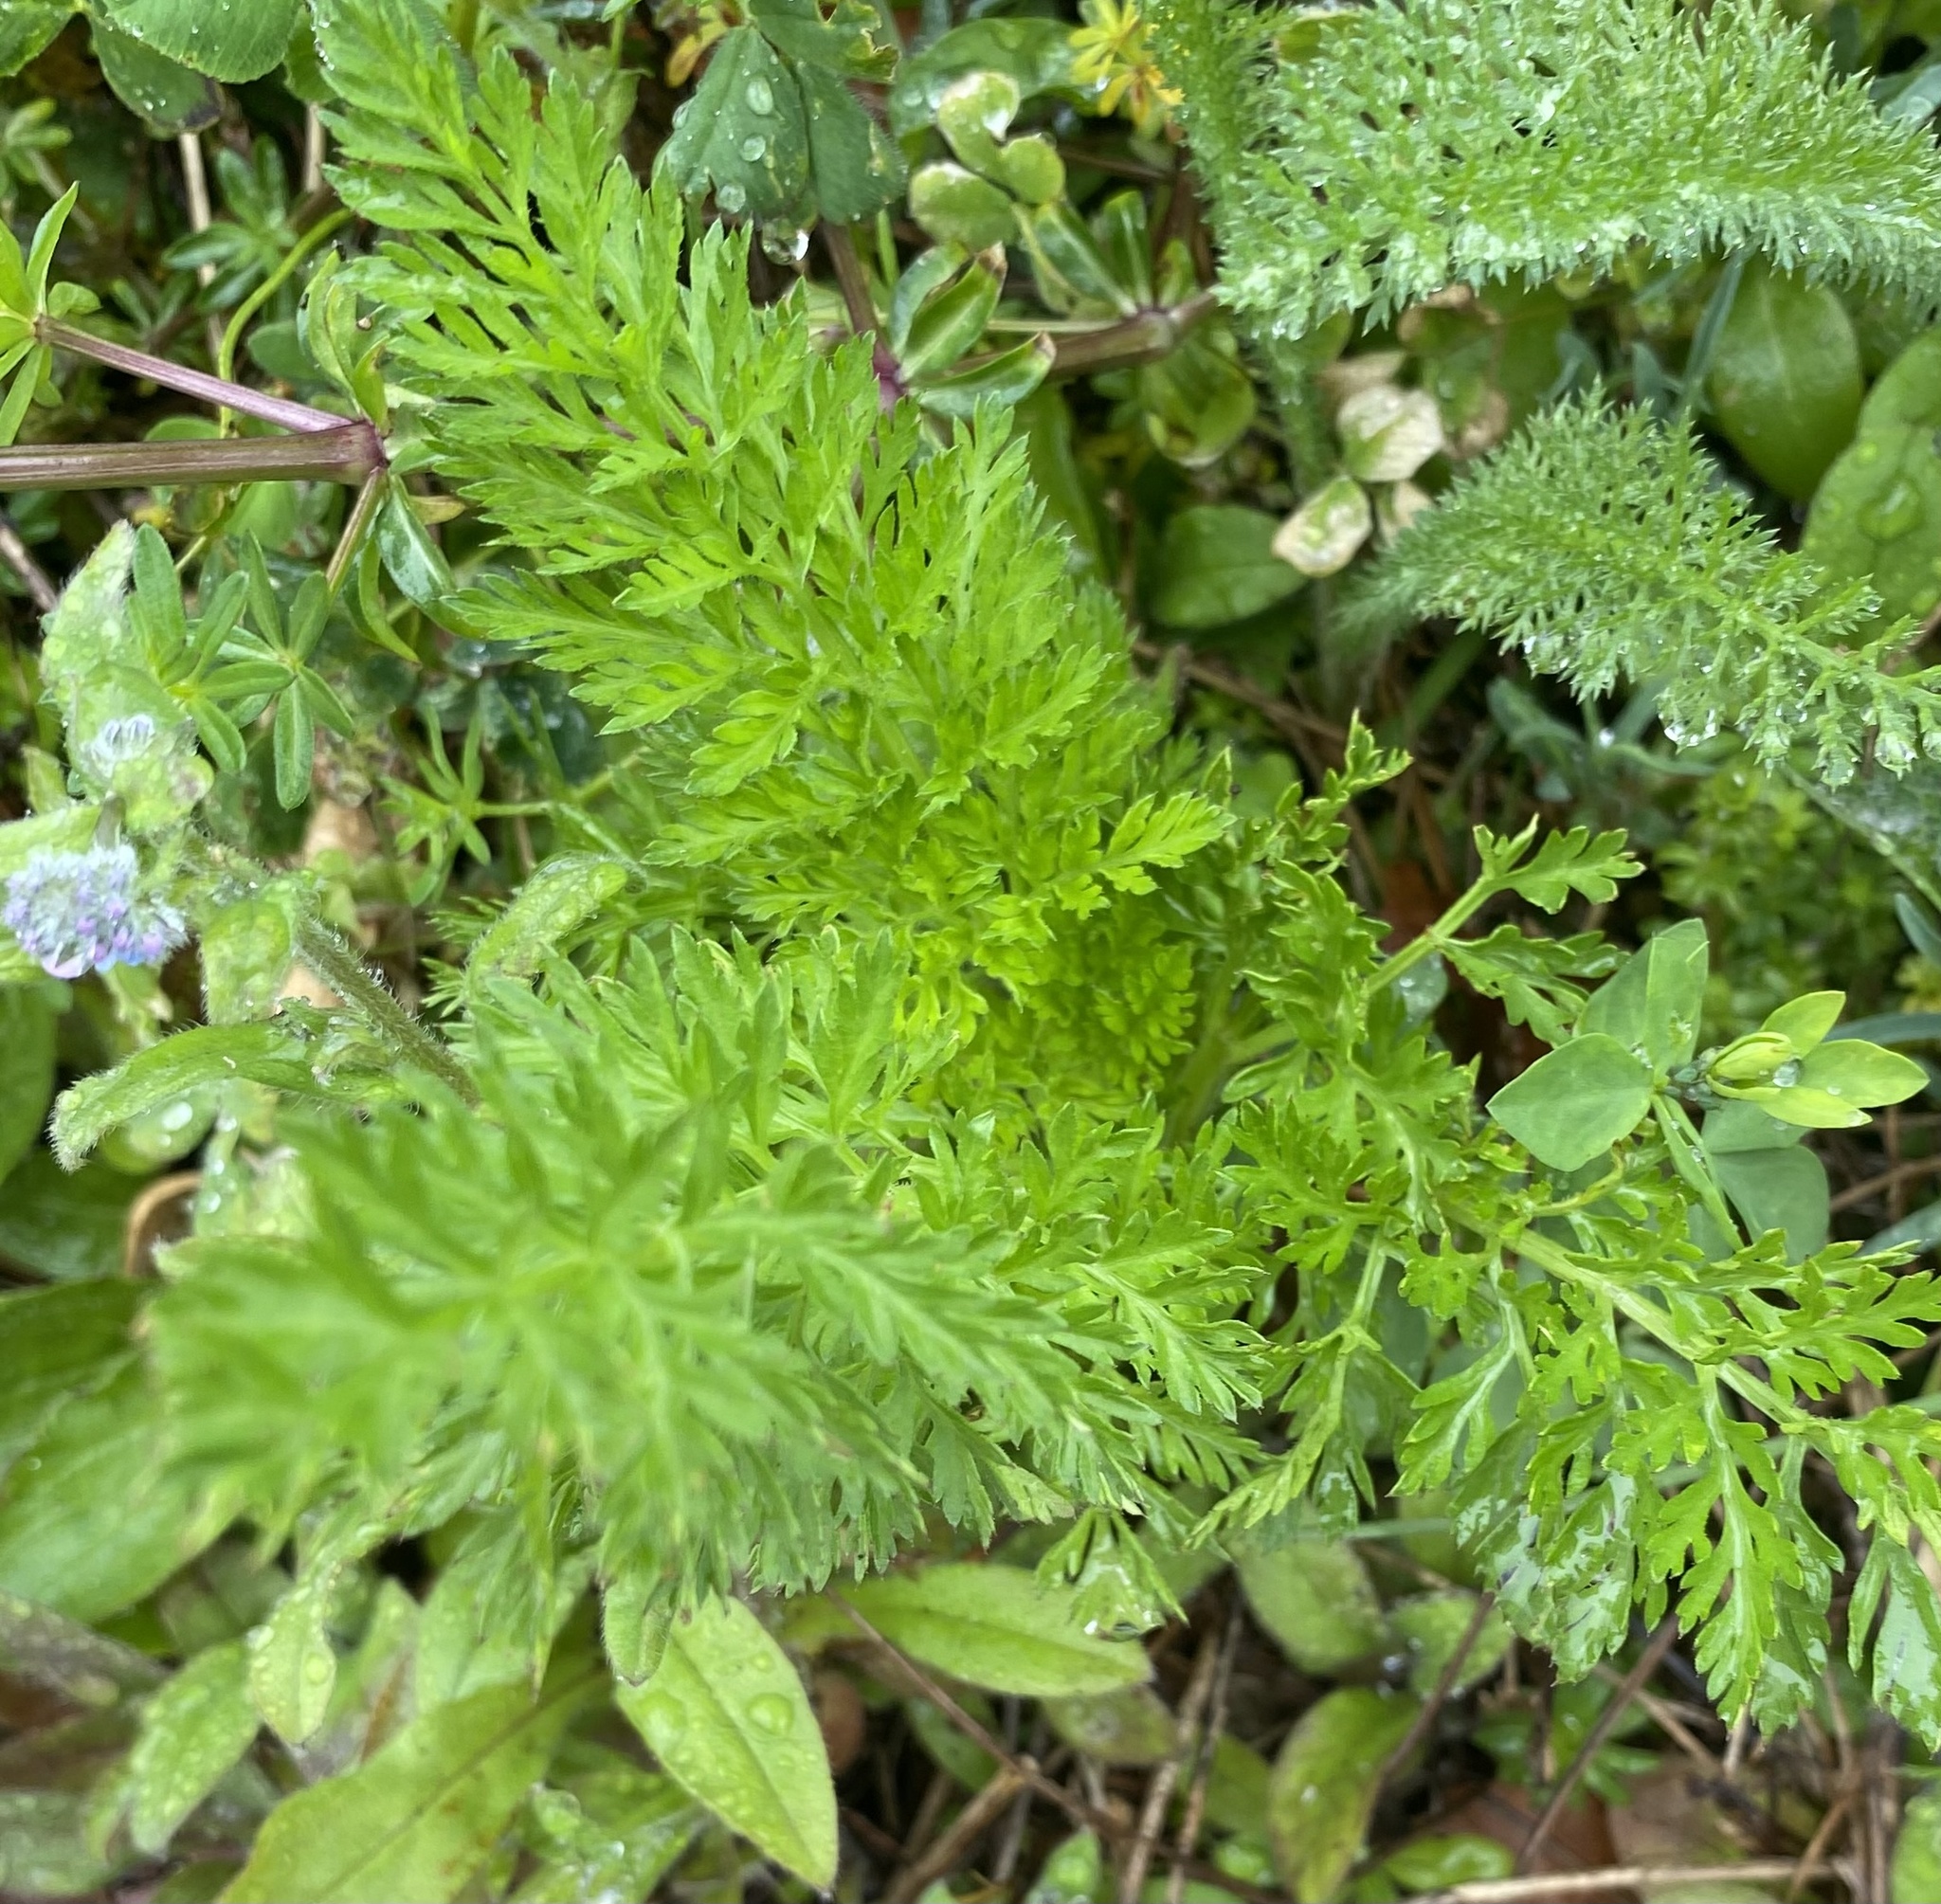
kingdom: Plantae
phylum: Tracheophyta
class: Magnoliopsida
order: Apiales
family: Apiaceae
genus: Daucus
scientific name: Daucus carota
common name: Wild carrot
